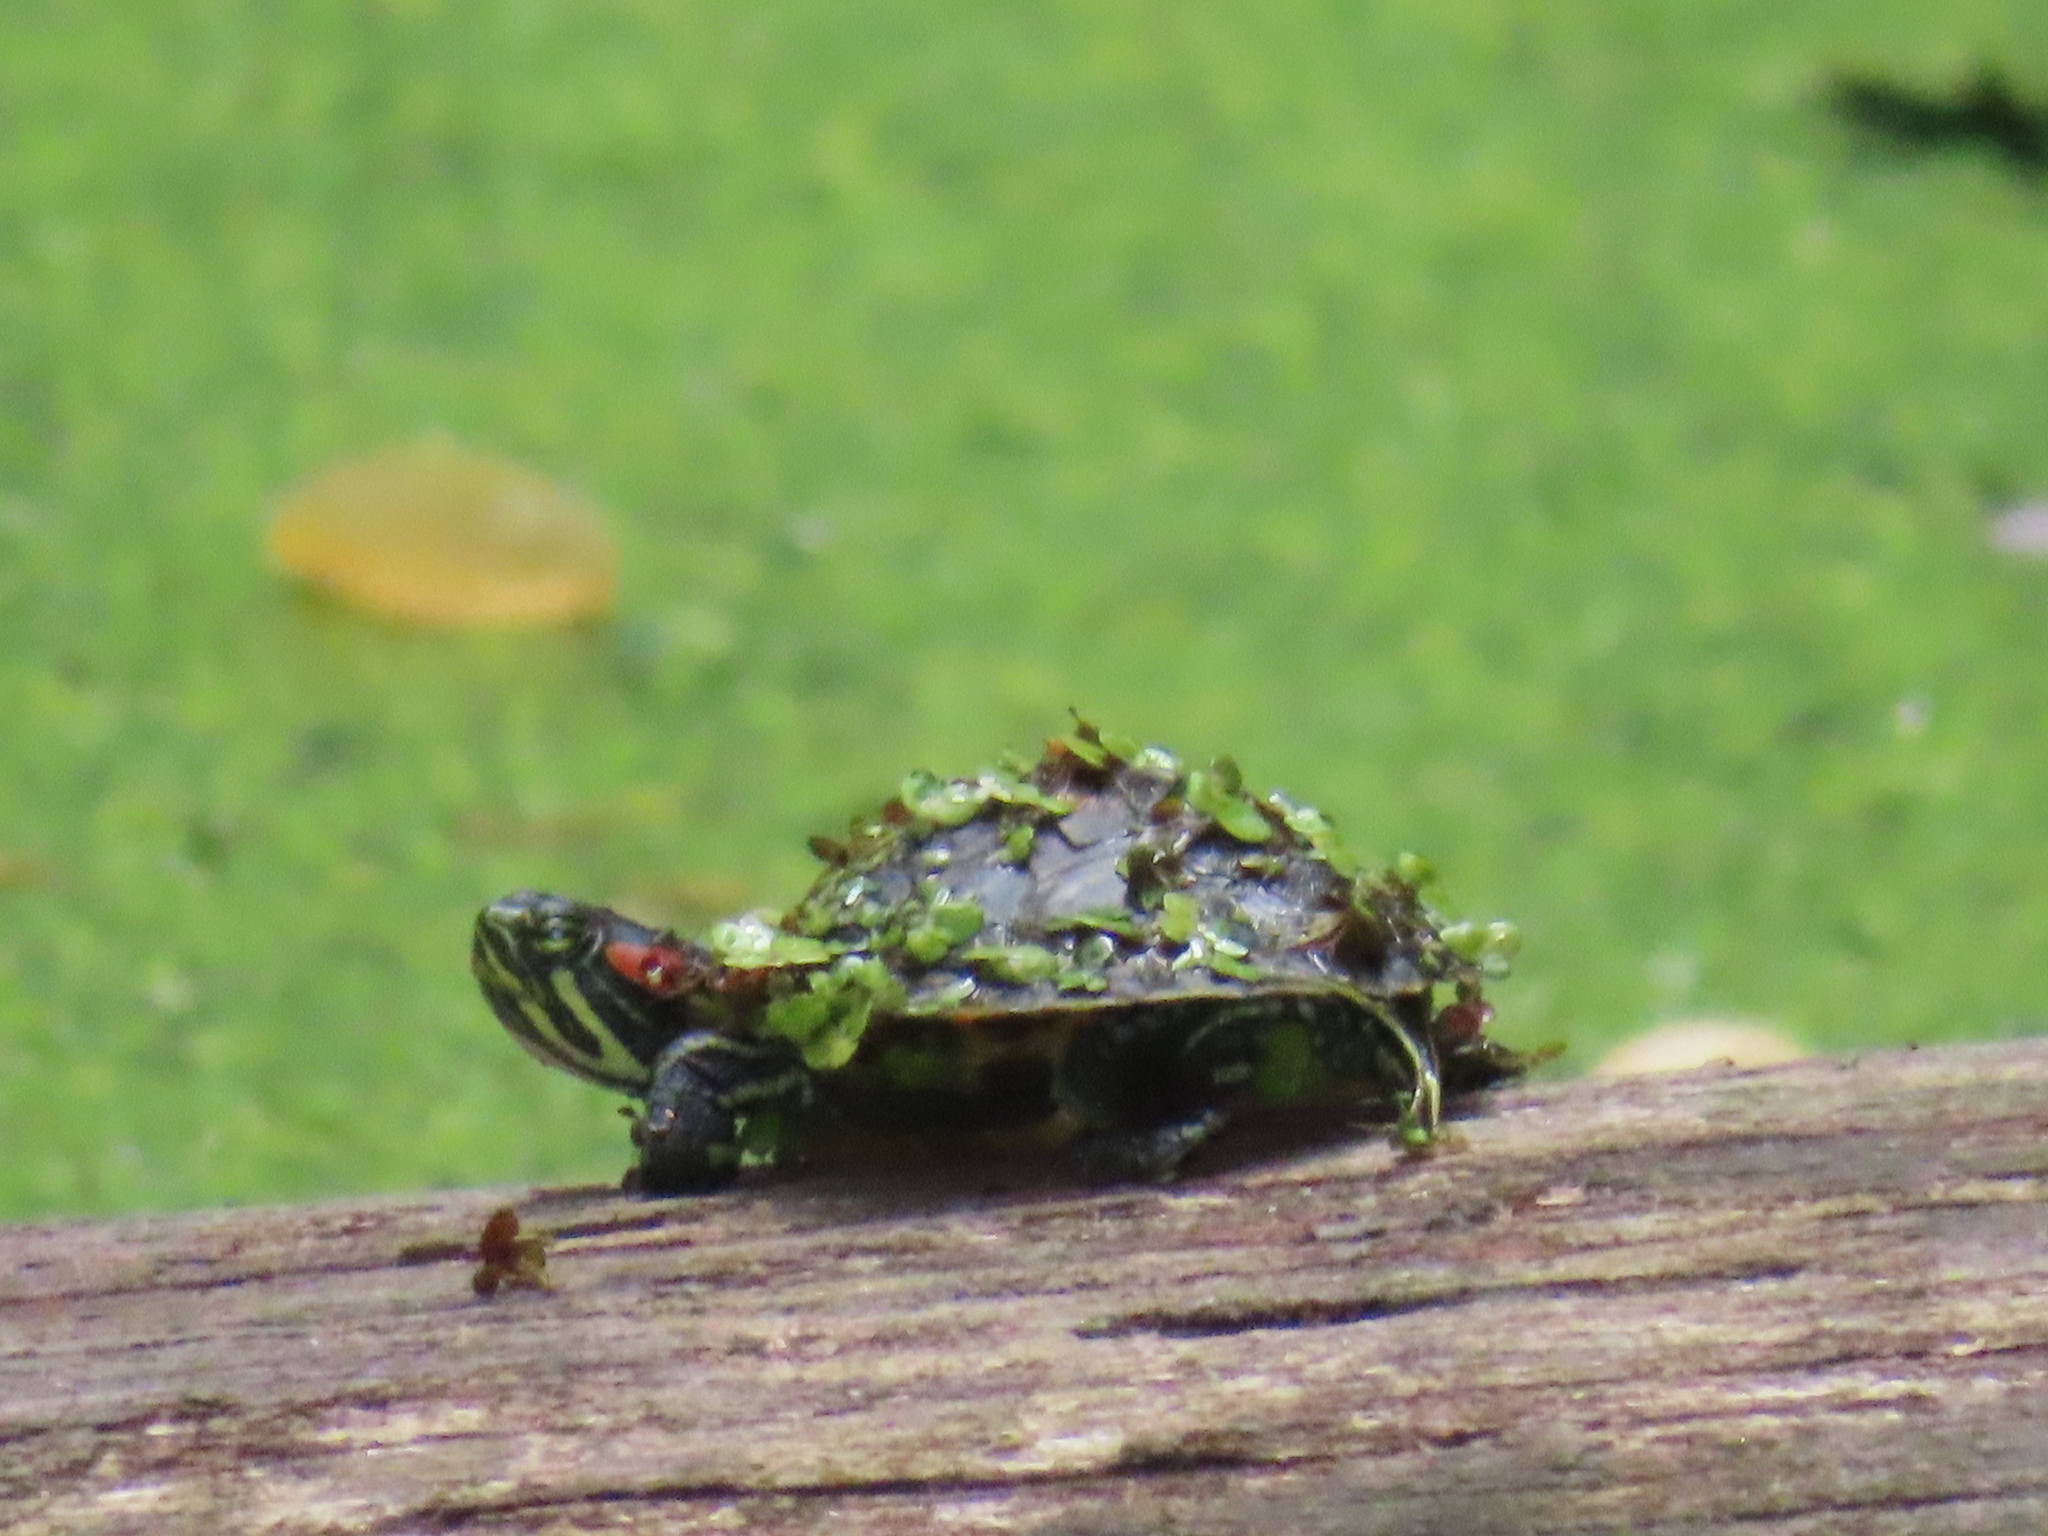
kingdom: Animalia
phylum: Chordata
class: Testudines
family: Emydidae
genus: Trachemys
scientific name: Trachemys scripta
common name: Slider
